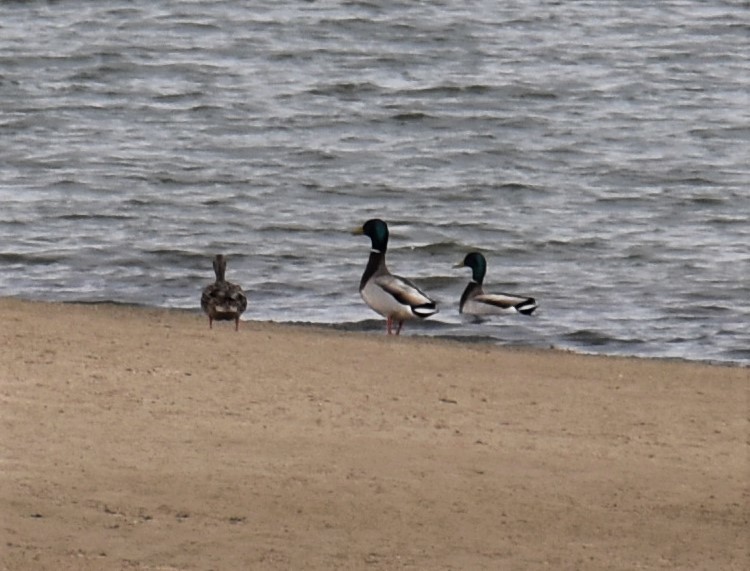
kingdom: Animalia
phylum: Chordata
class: Aves
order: Anseriformes
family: Anatidae
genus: Anas
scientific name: Anas platyrhynchos
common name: Mallard
